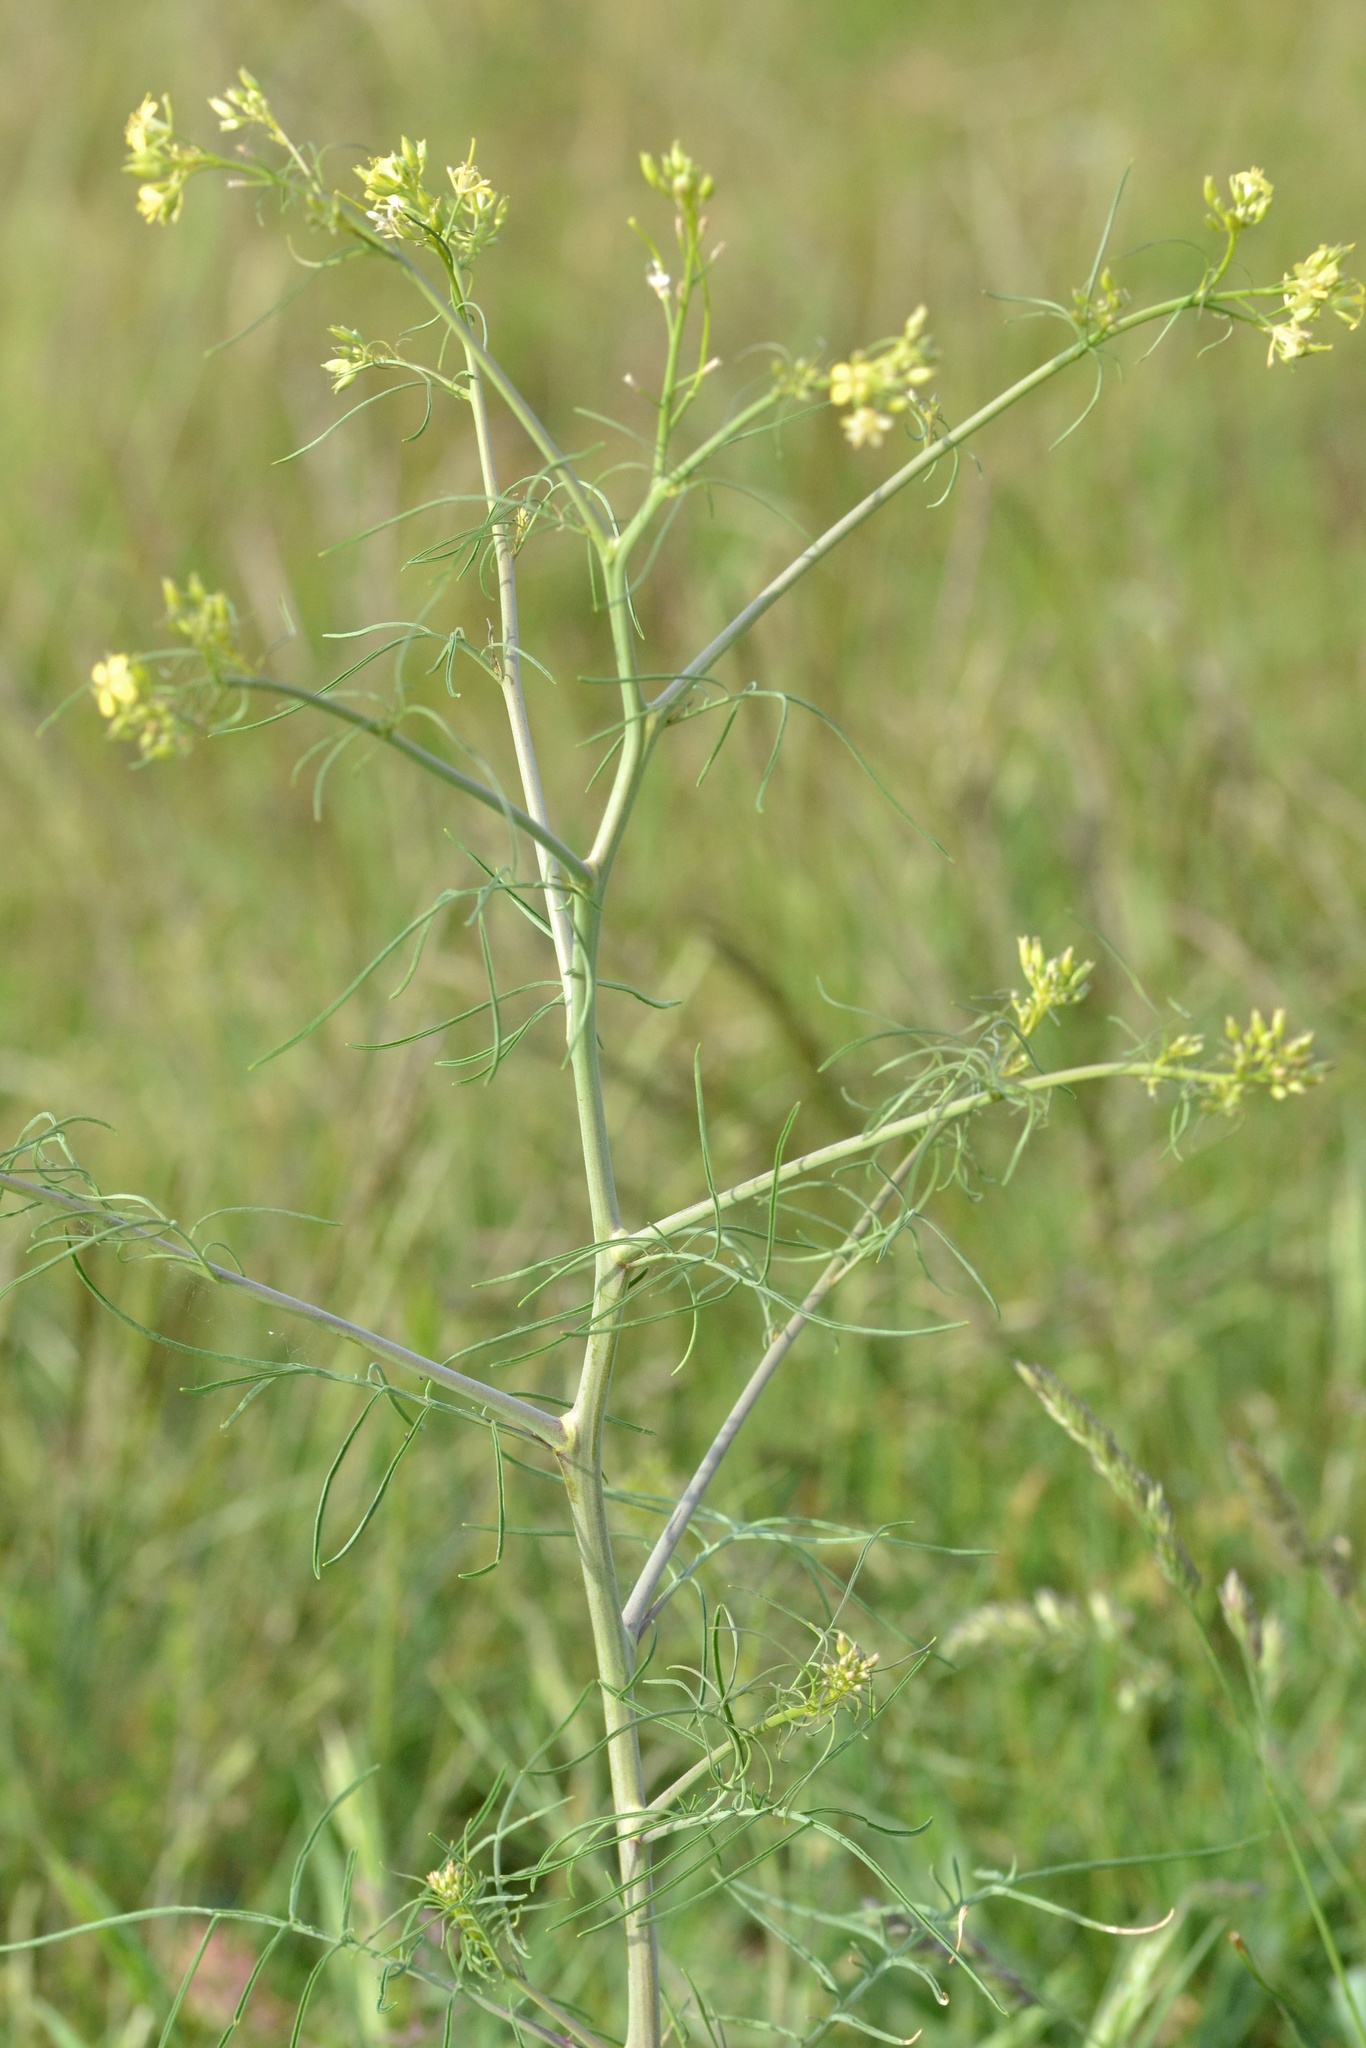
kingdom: Plantae
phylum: Tracheophyta
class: Magnoliopsida
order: Brassicales
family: Brassicaceae
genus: Sisymbrium
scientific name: Sisymbrium altissimum
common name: Tall rocket
